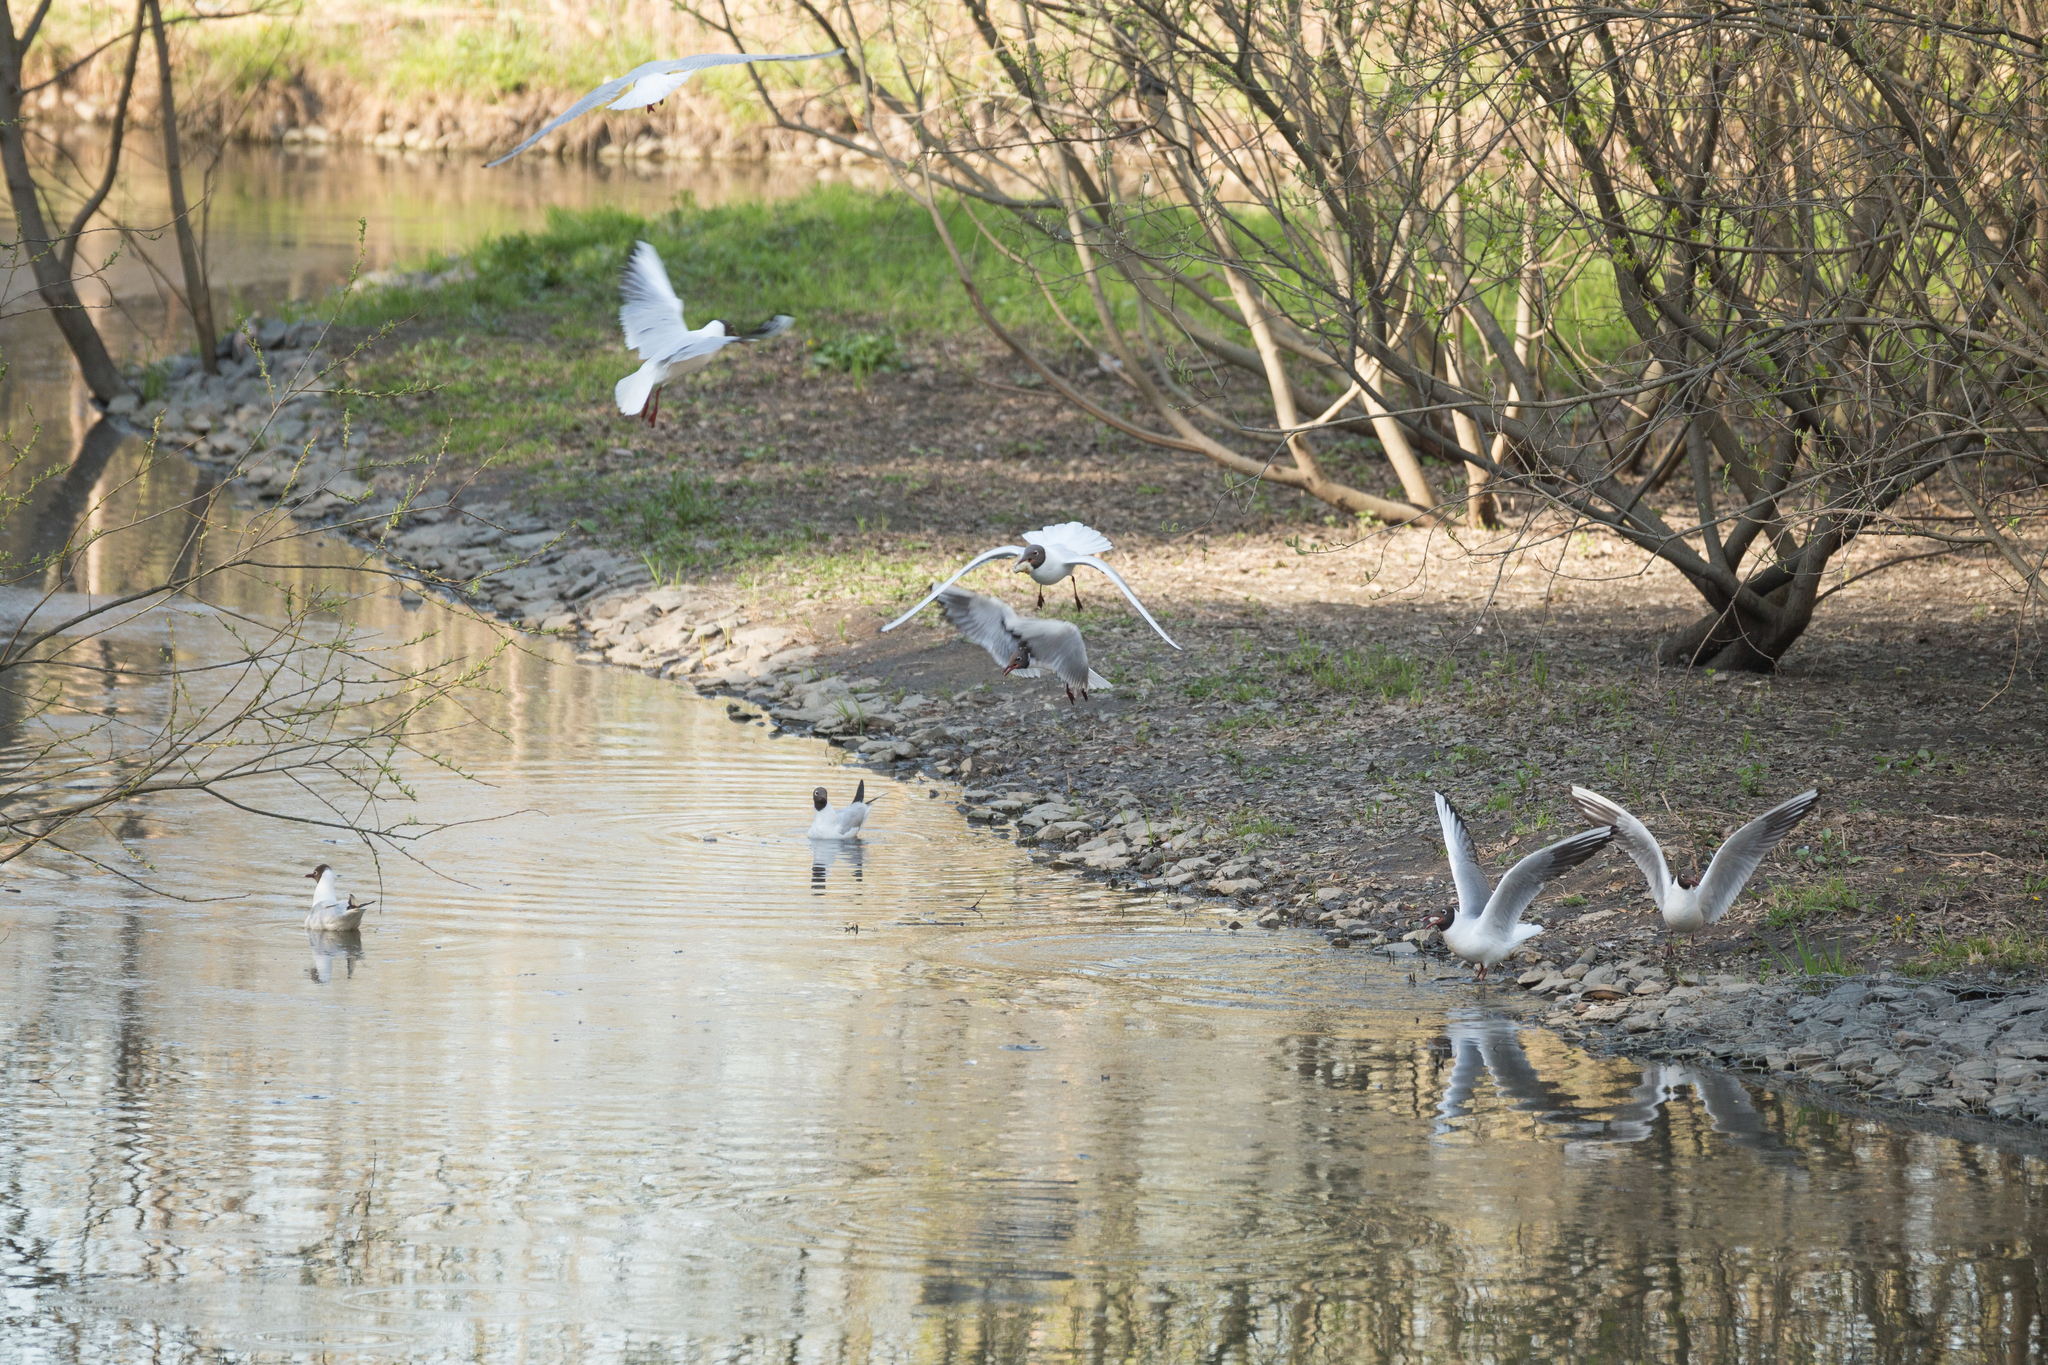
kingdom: Animalia
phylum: Chordata
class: Aves
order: Charadriiformes
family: Laridae
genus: Chroicocephalus
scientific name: Chroicocephalus ridibundus
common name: Black-headed gull
